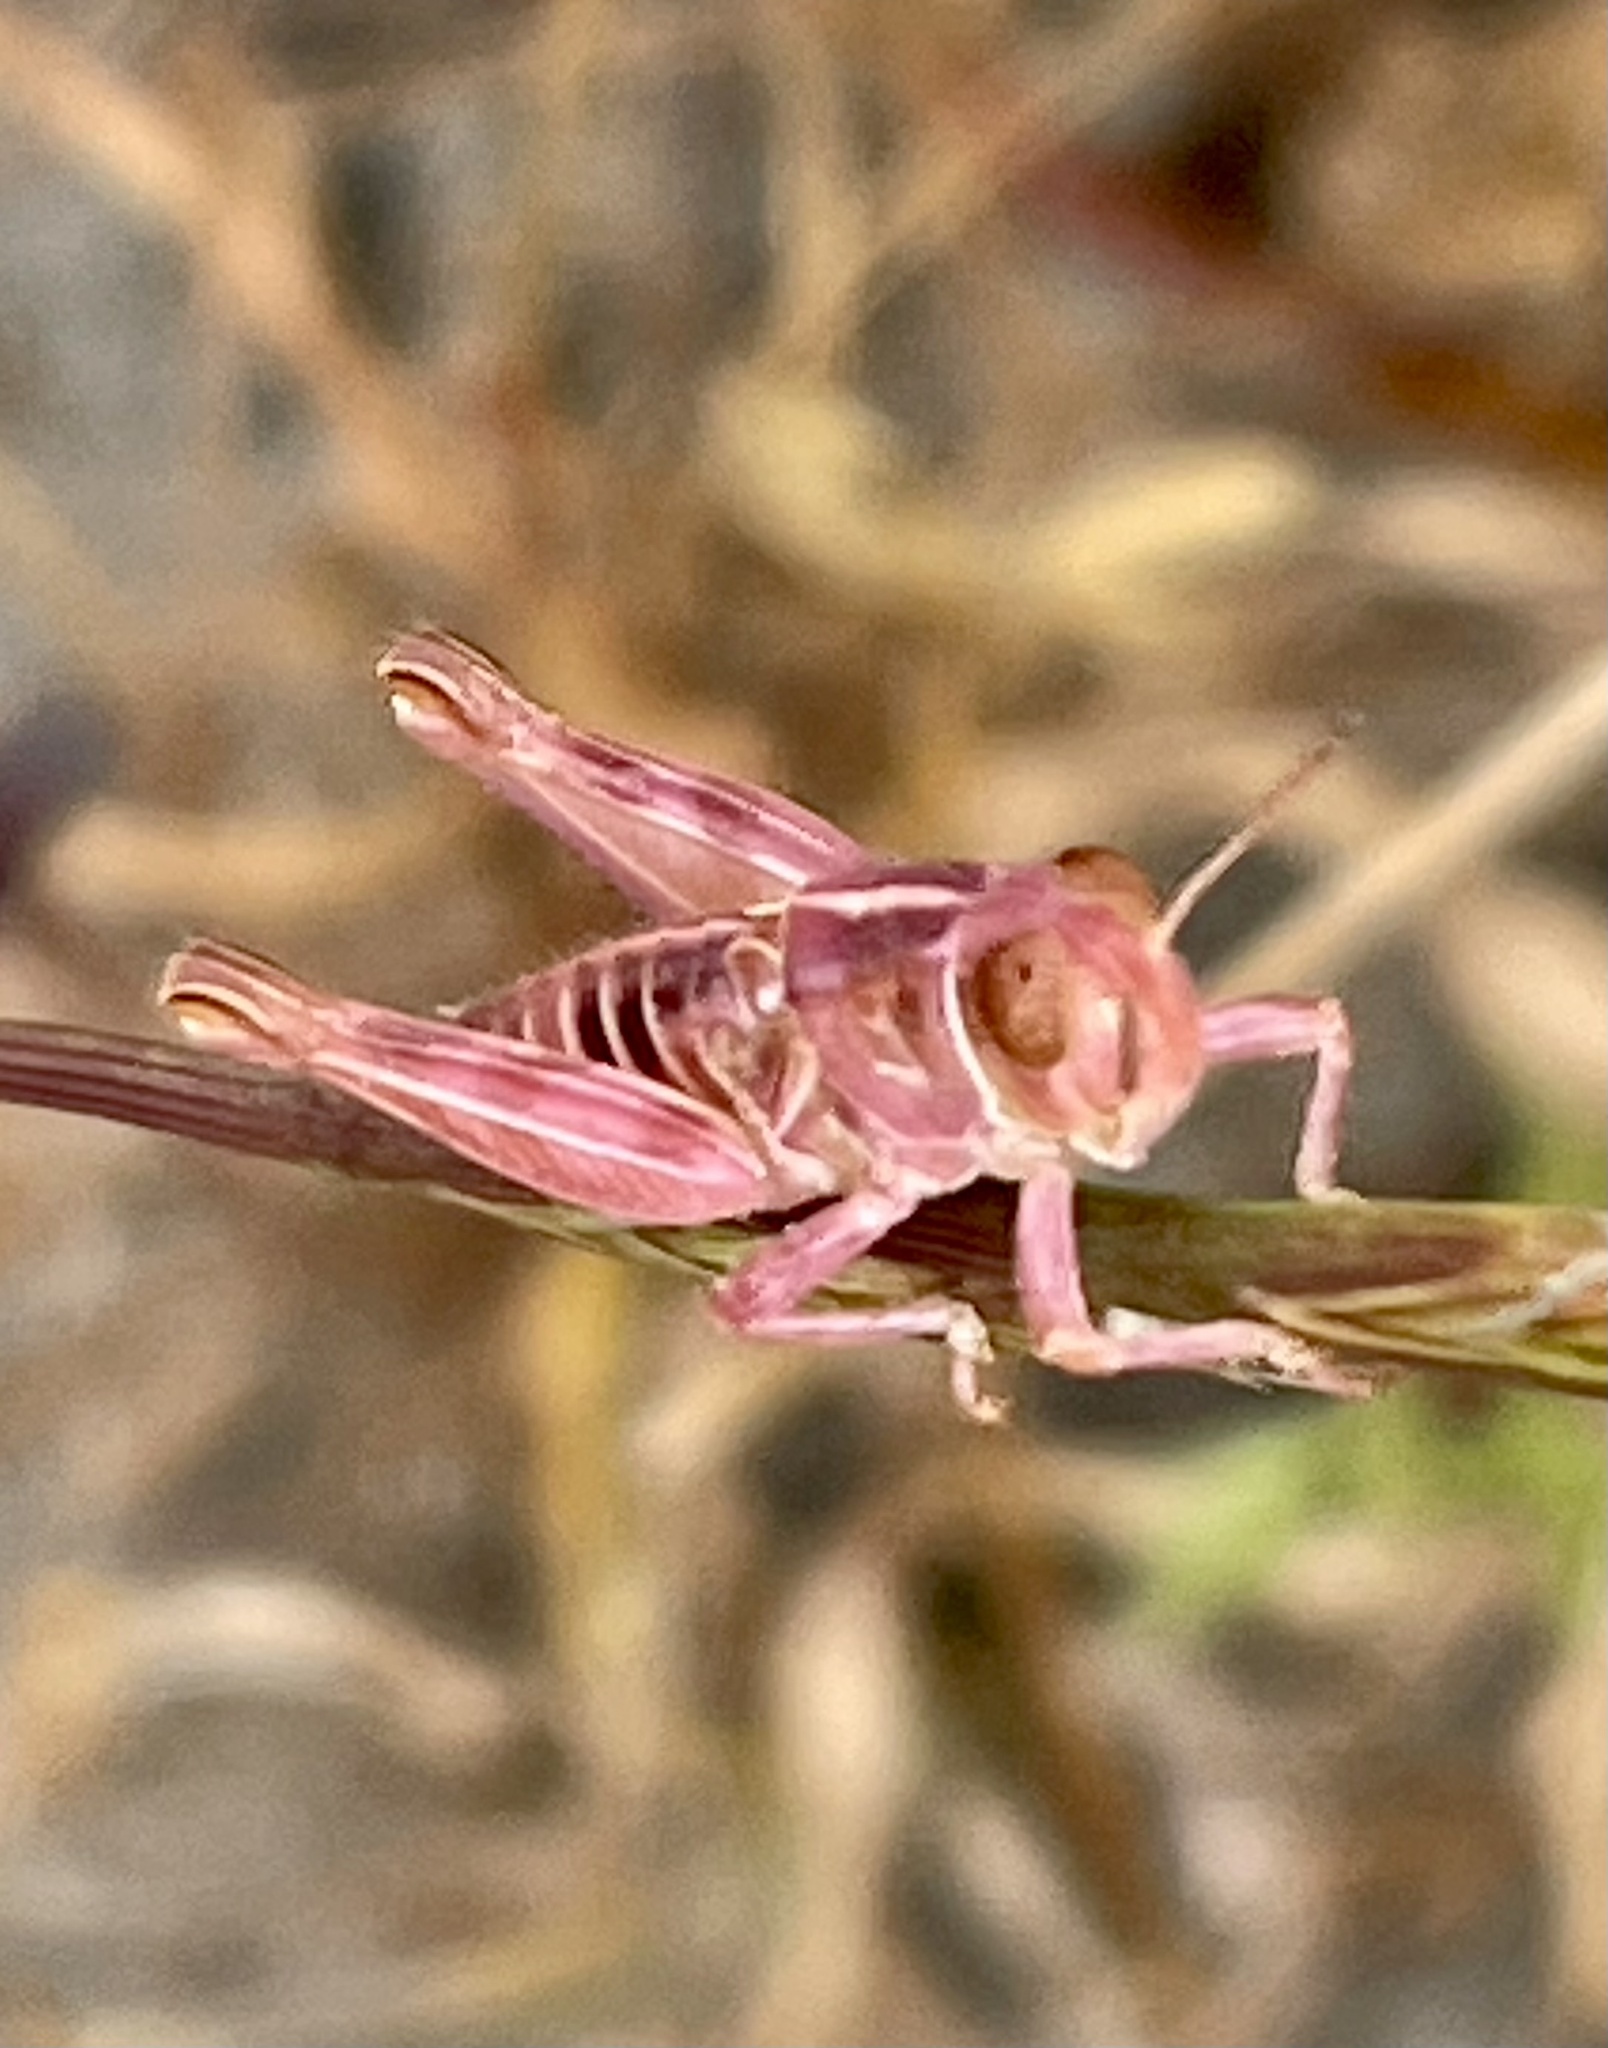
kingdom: Animalia
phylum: Arthropoda
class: Insecta
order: Orthoptera
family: Acrididae
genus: Oedaleonotus
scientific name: Oedaleonotus enigma
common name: Valley grasshopper
